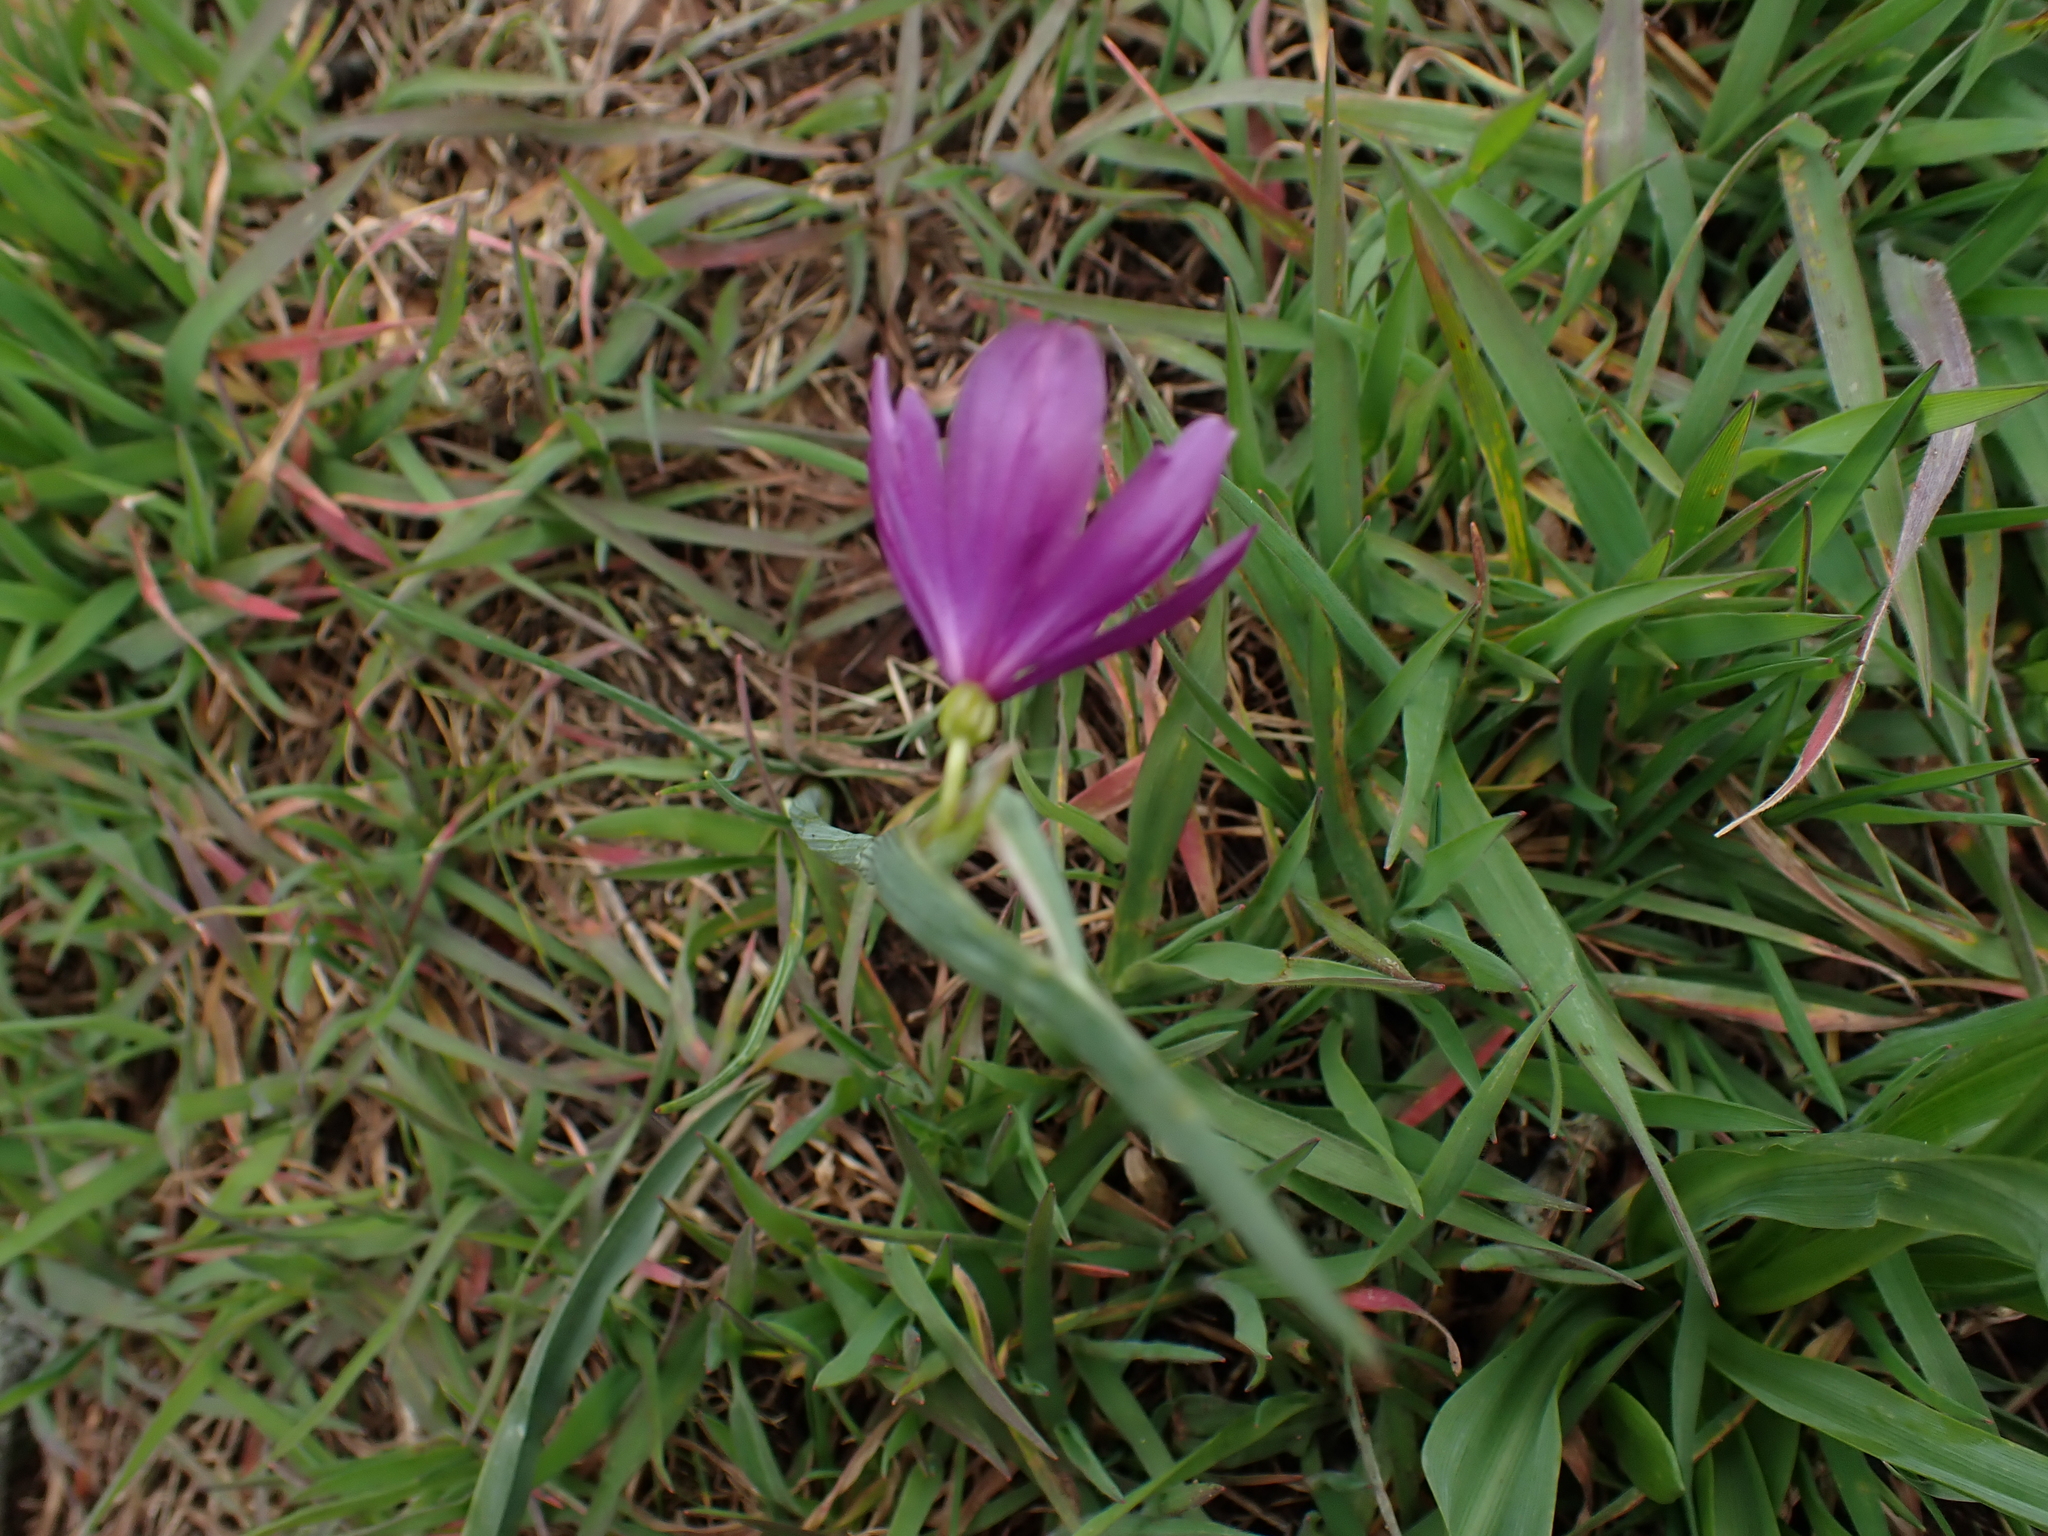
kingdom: Plantae
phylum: Tracheophyta
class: Liliopsida
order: Asparagales
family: Iridaceae
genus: Olsynium
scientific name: Olsynium douglasii
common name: Douglas' grasswidow
